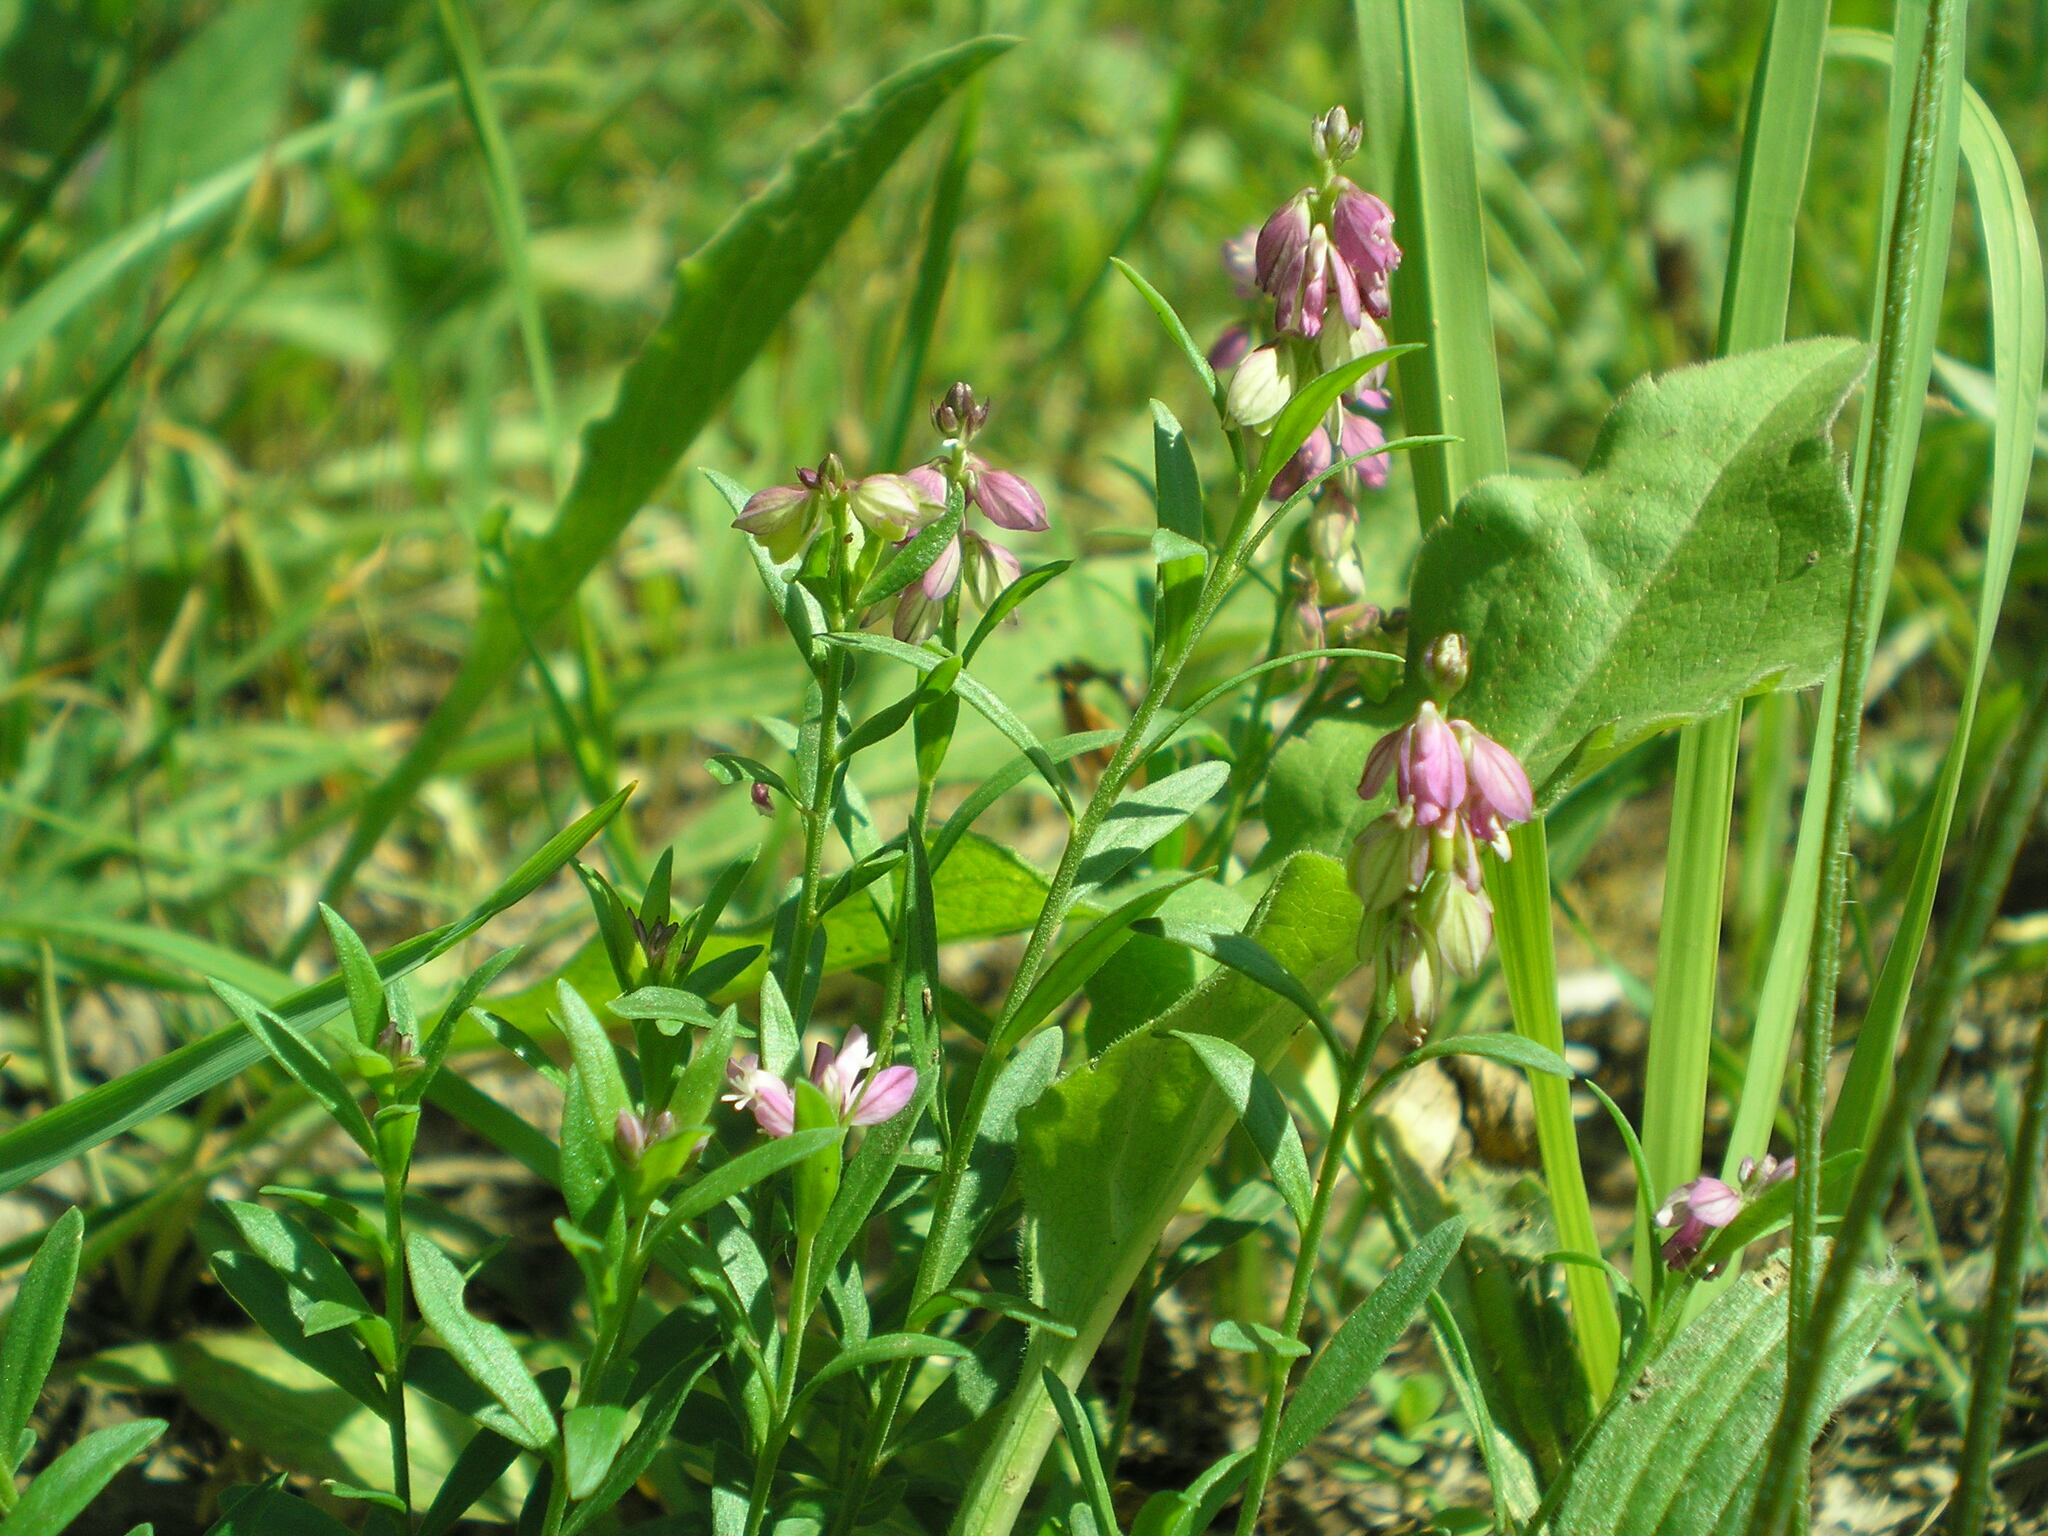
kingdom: Plantae
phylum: Tracheophyta
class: Magnoliopsida
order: Fabales
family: Polygalaceae
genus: Polygala
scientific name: Polygala comosa
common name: Tufted milkwort
